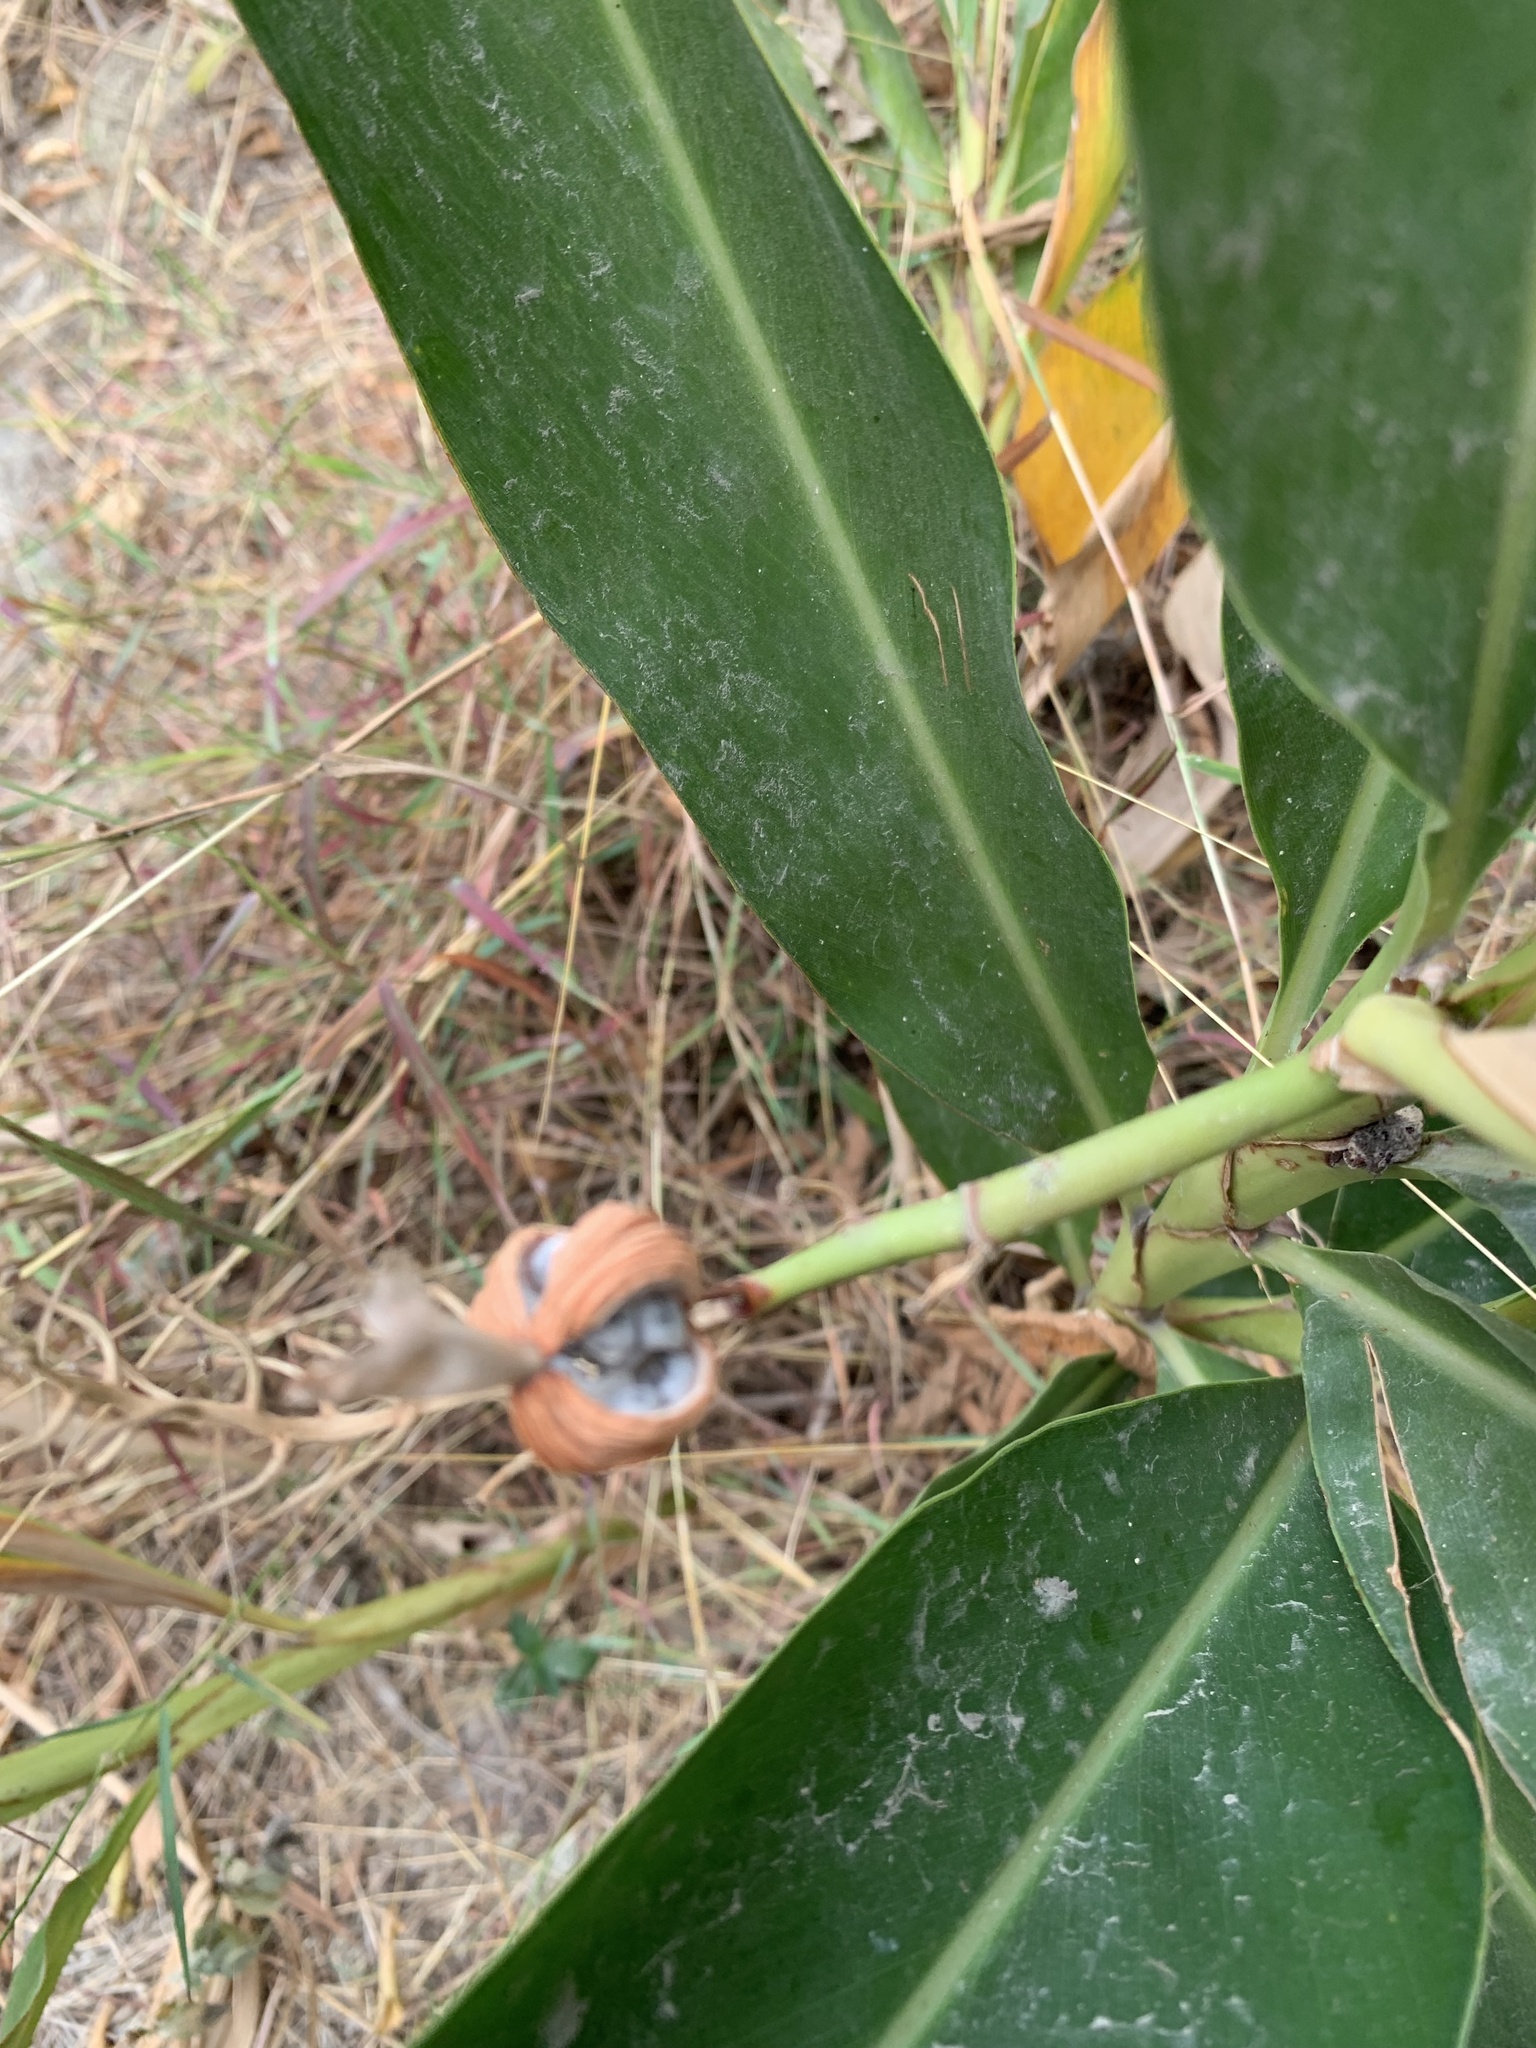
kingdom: Plantae
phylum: Tracheophyta
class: Liliopsida
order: Zingiberales
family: Zingiberaceae
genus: Alpinia
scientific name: Alpinia zerumbet
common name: Shellplant
